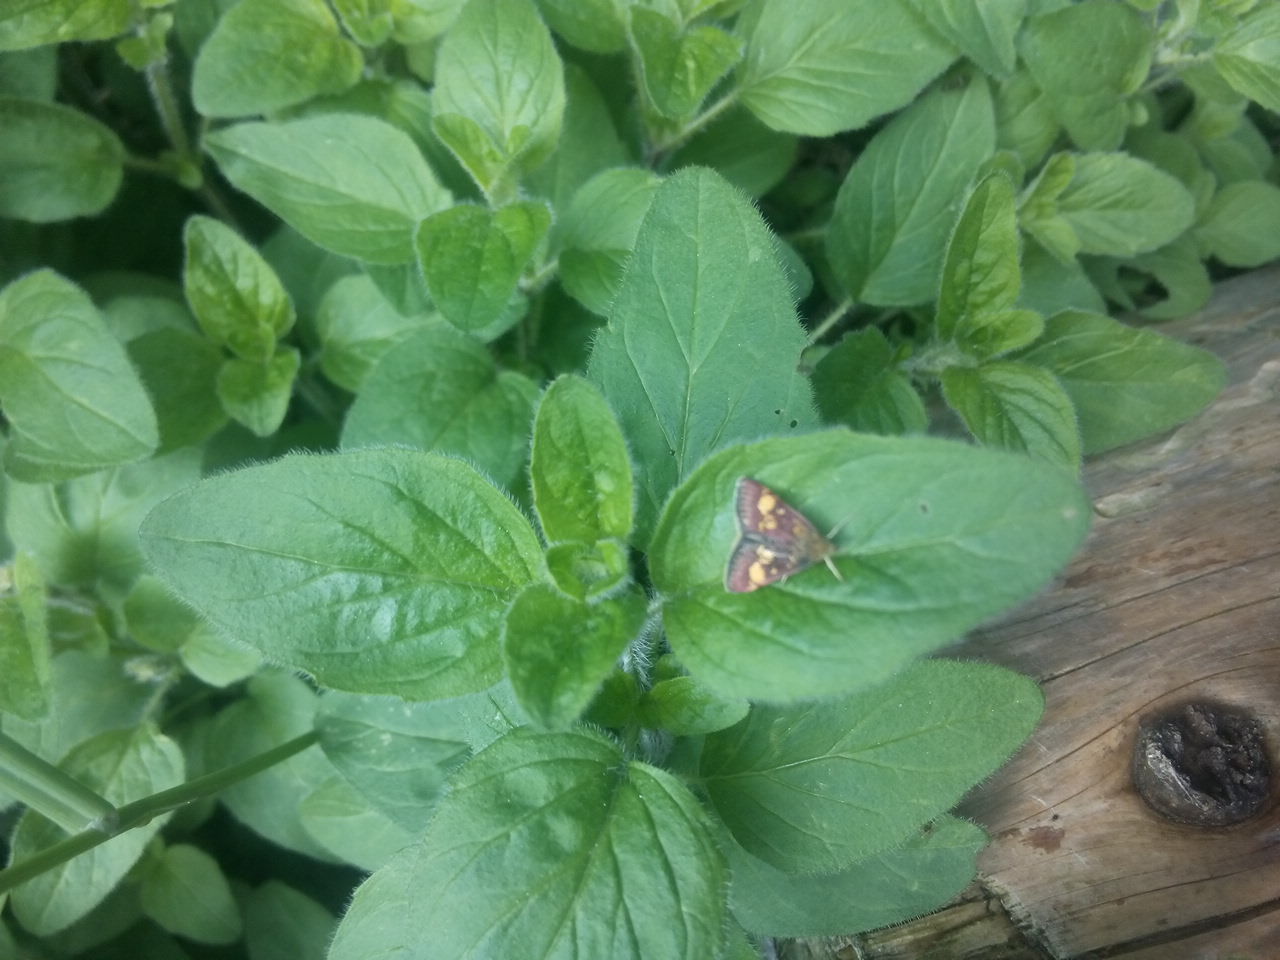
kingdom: Animalia
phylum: Arthropoda
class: Insecta
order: Lepidoptera
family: Crambidae
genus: Pyrausta
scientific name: Pyrausta aurata
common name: Small purple & gold
